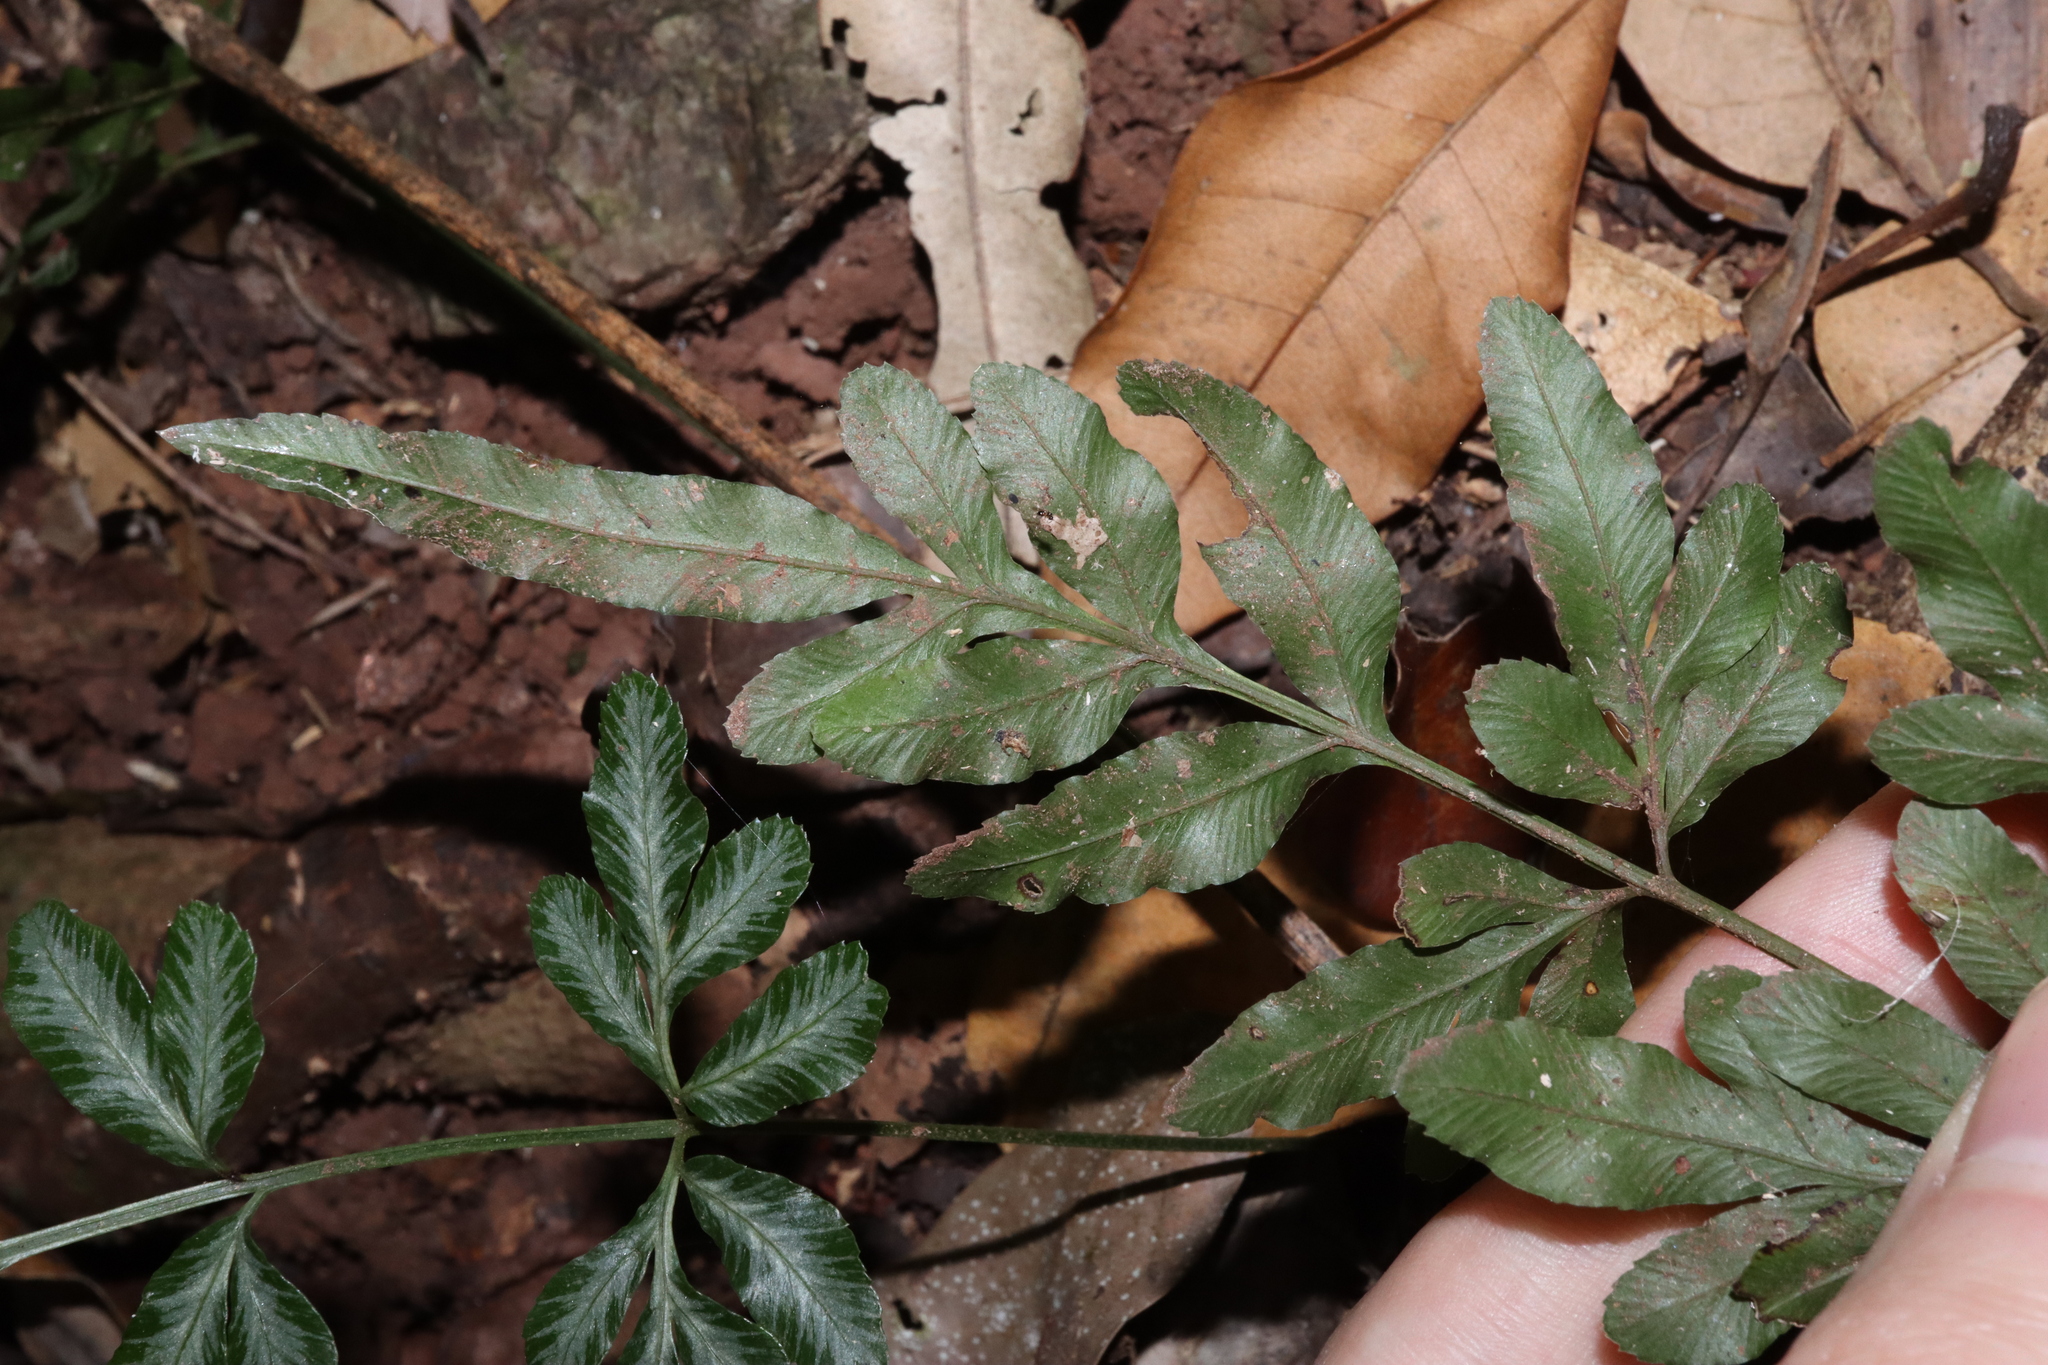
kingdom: Plantae
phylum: Tracheophyta
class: Polypodiopsida
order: Polypodiales
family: Pteridaceae
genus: Pteris
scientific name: Pteris ensiformis
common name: Sword brake
